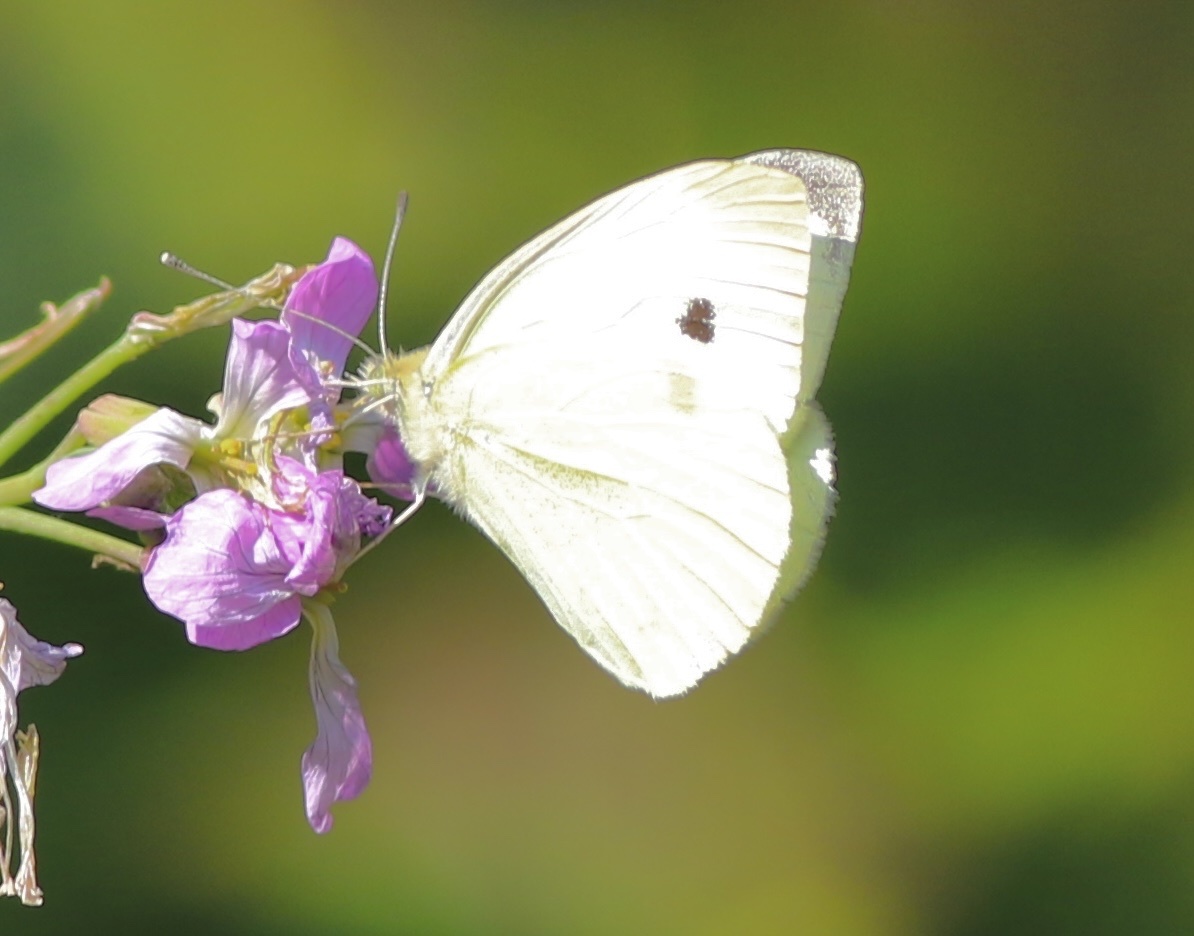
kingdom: Animalia
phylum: Arthropoda
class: Insecta
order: Lepidoptera
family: Pieridae
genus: Pieris
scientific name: Pieris rapae
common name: Small white
